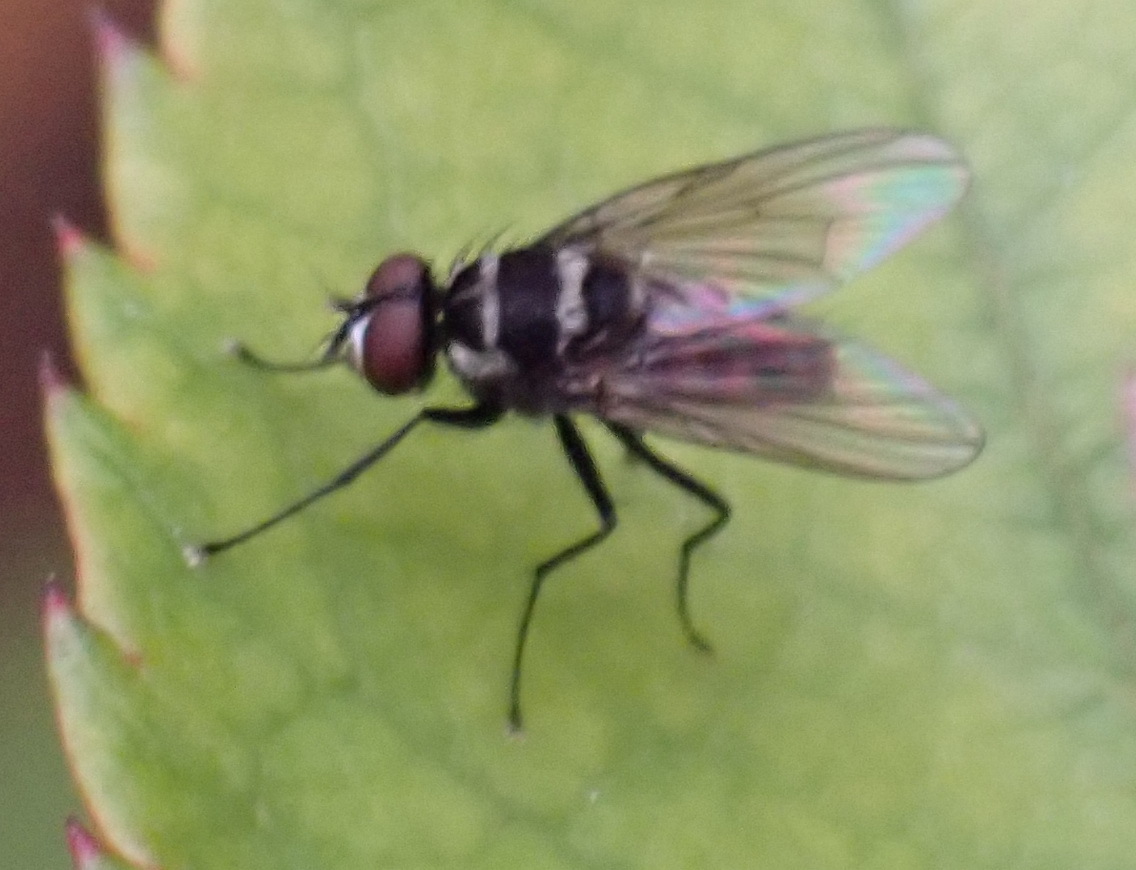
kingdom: Animalia
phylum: Arthropoda
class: Insecta
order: Diptera
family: Muscidae
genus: Limnophora
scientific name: Limnophora obsignata
